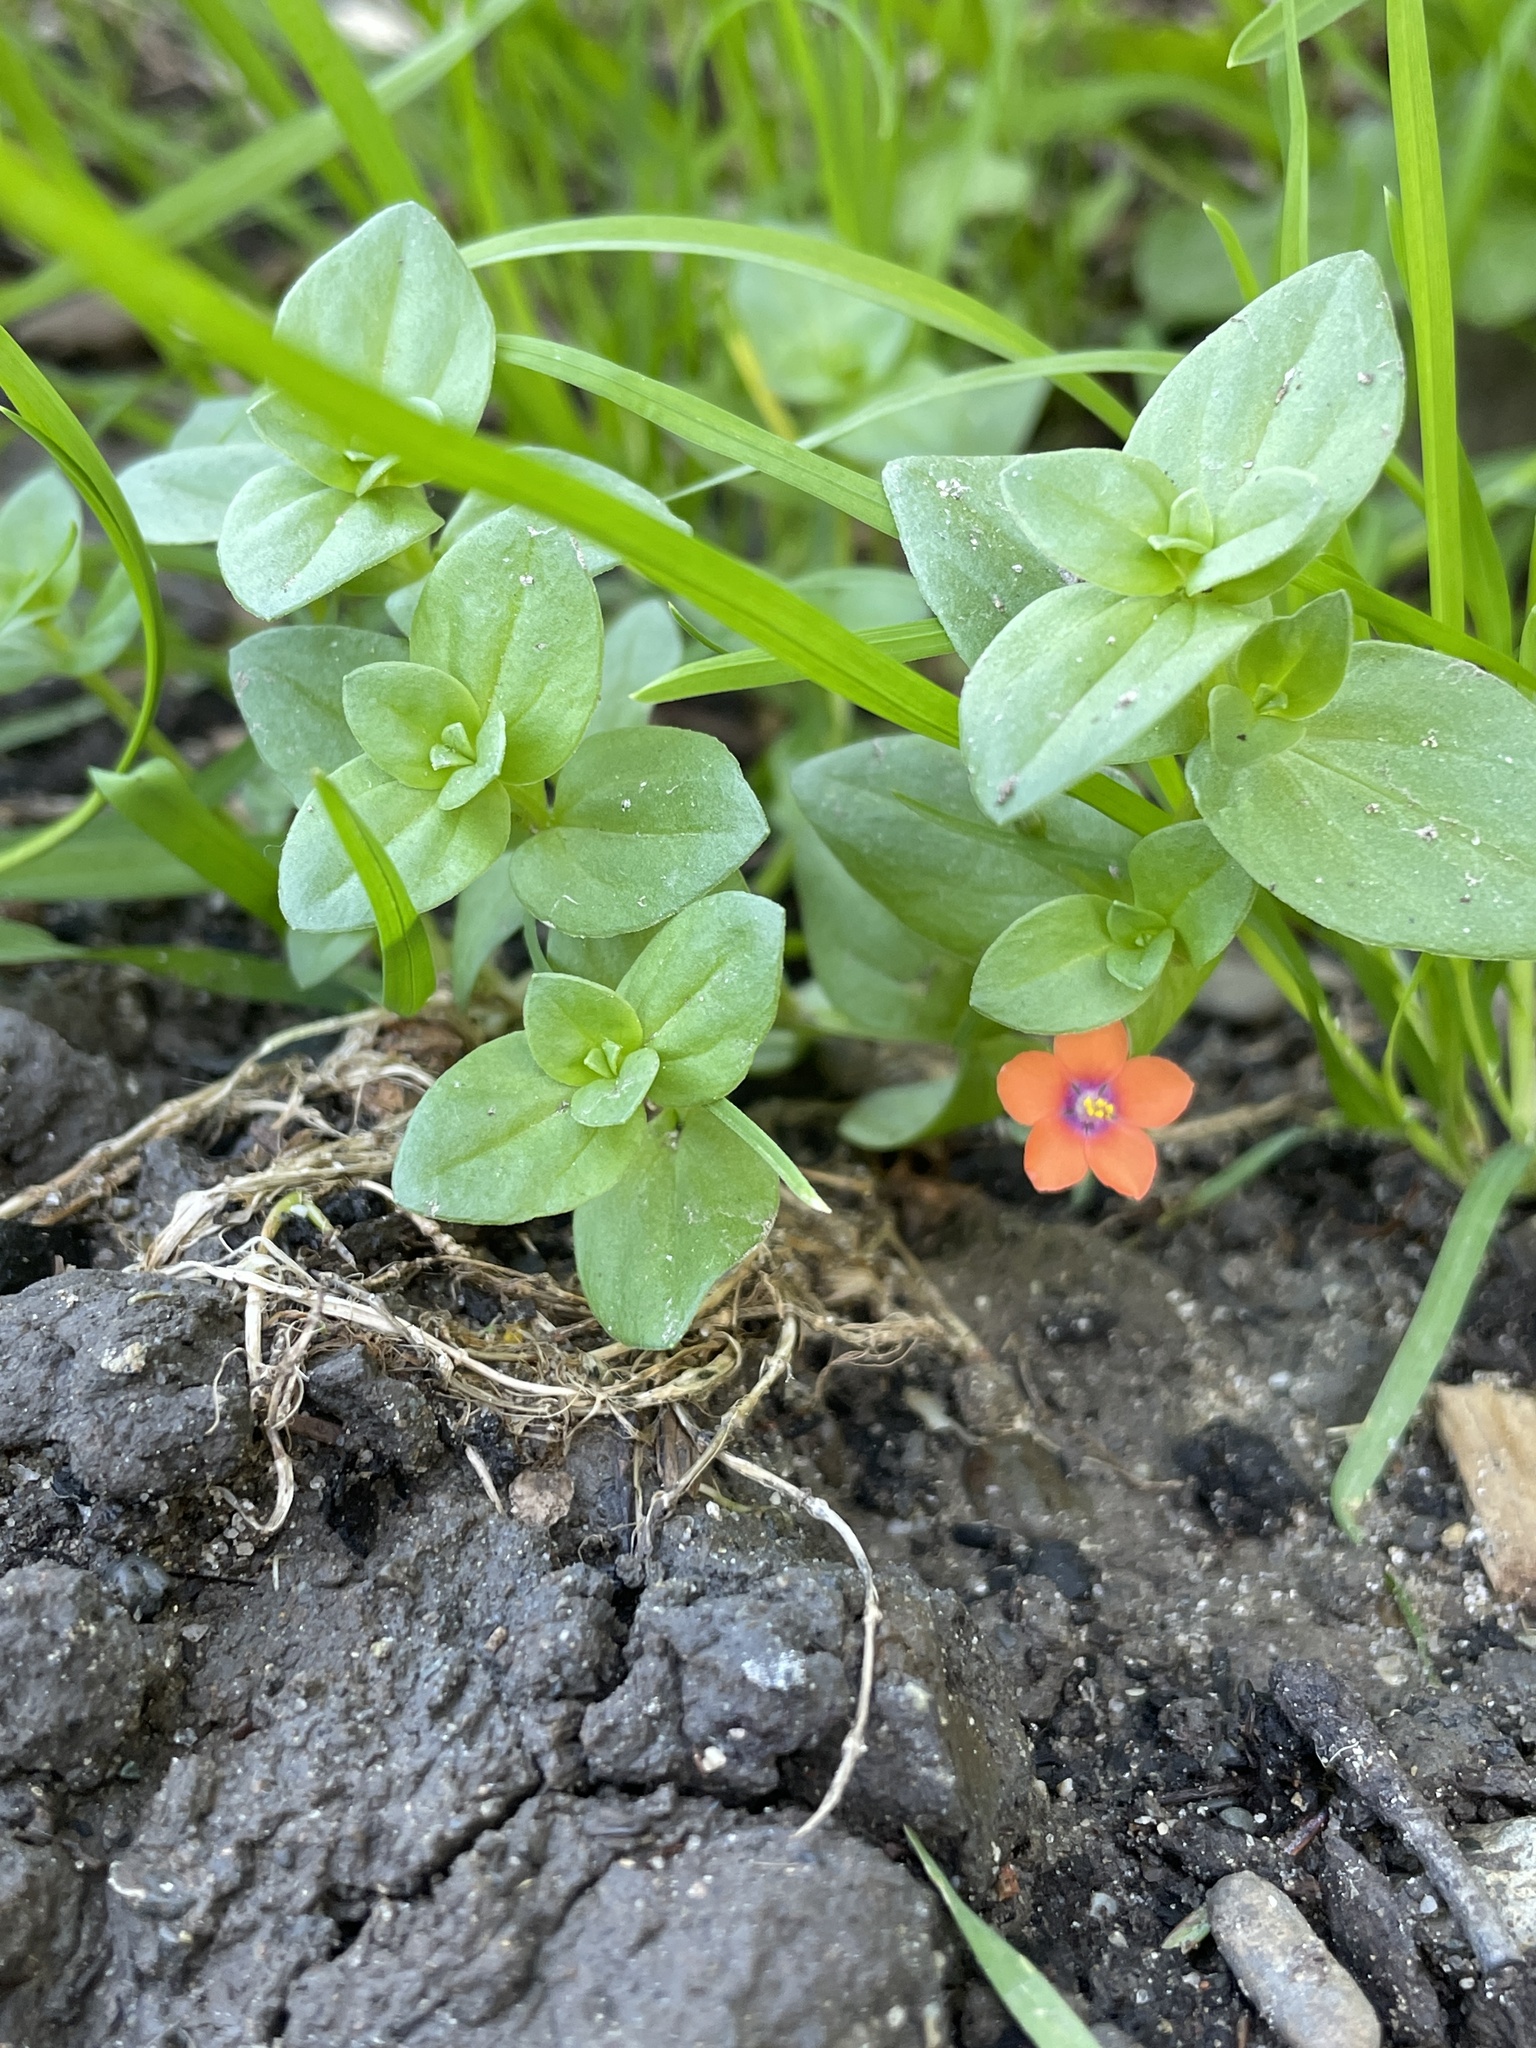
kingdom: Plantae
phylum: Tracheophyta
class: Magnoliopsida
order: Ericales
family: Primulaceae
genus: Lysimachia
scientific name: Lysimachia arvensis
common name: Scarlet pimpernel
